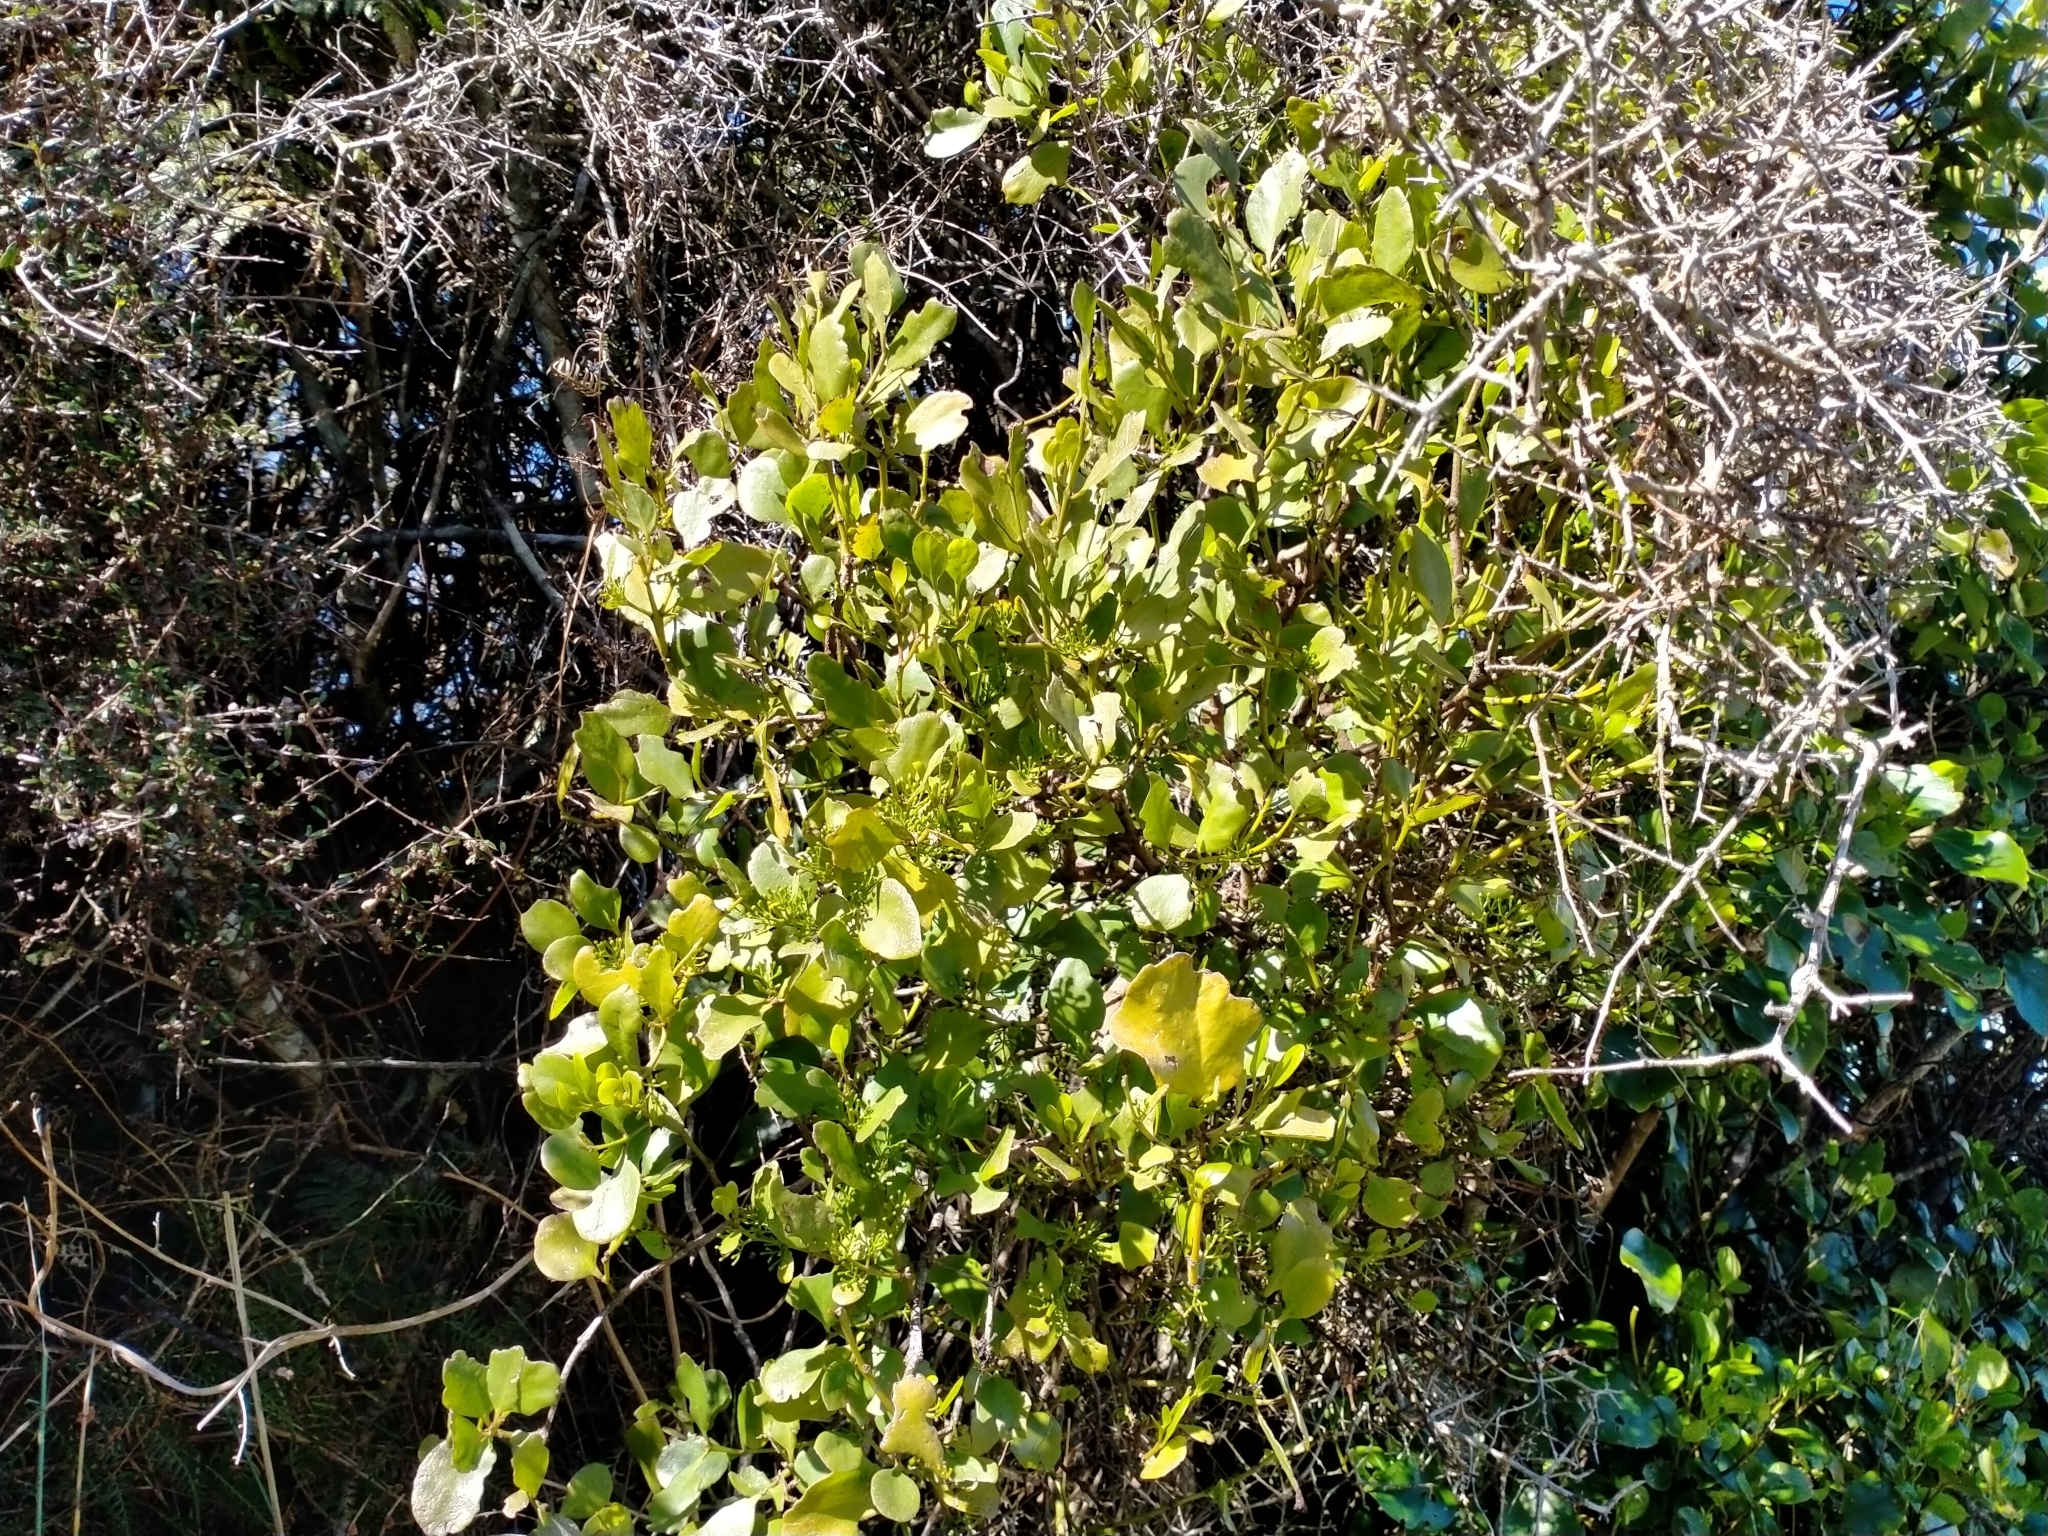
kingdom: Plantae
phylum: Tracheophyta
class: Magnoliopsida
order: Santalales
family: Loranthaceae
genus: Ileostylus
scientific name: Ileostylus micranthus
